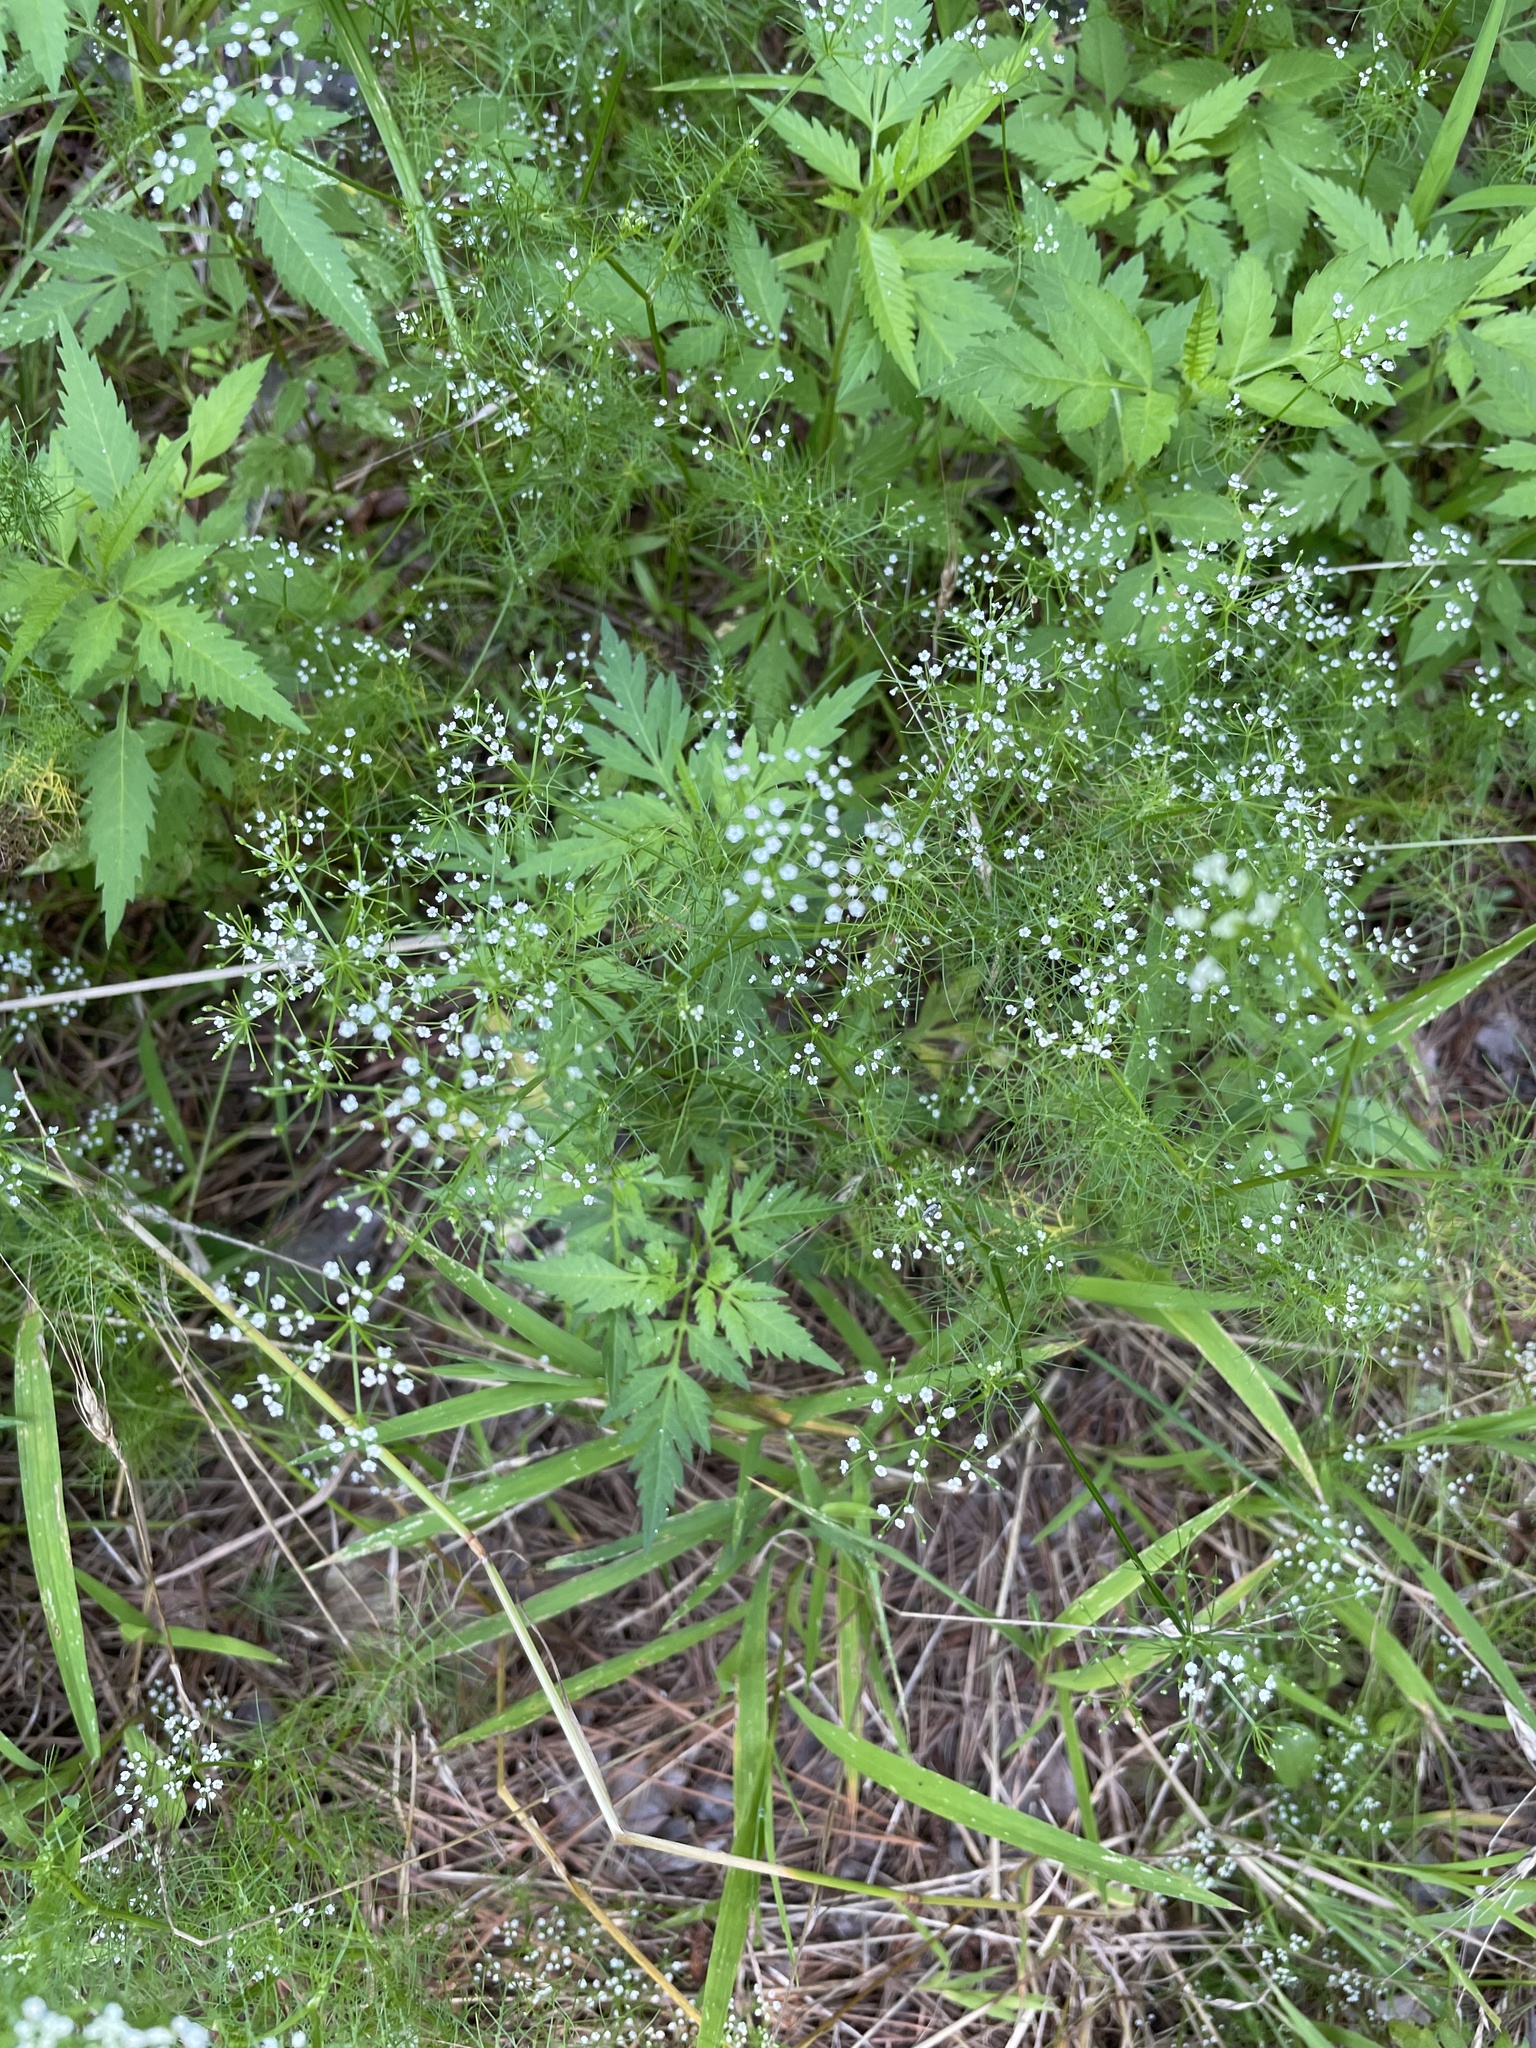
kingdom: Plantae
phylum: Tracheophyta
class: Magnoliopsida
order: Apiales
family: Apiaceae
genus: Ptilimnium
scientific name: Ptilimnium capillaceum
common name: Herbwilliam
